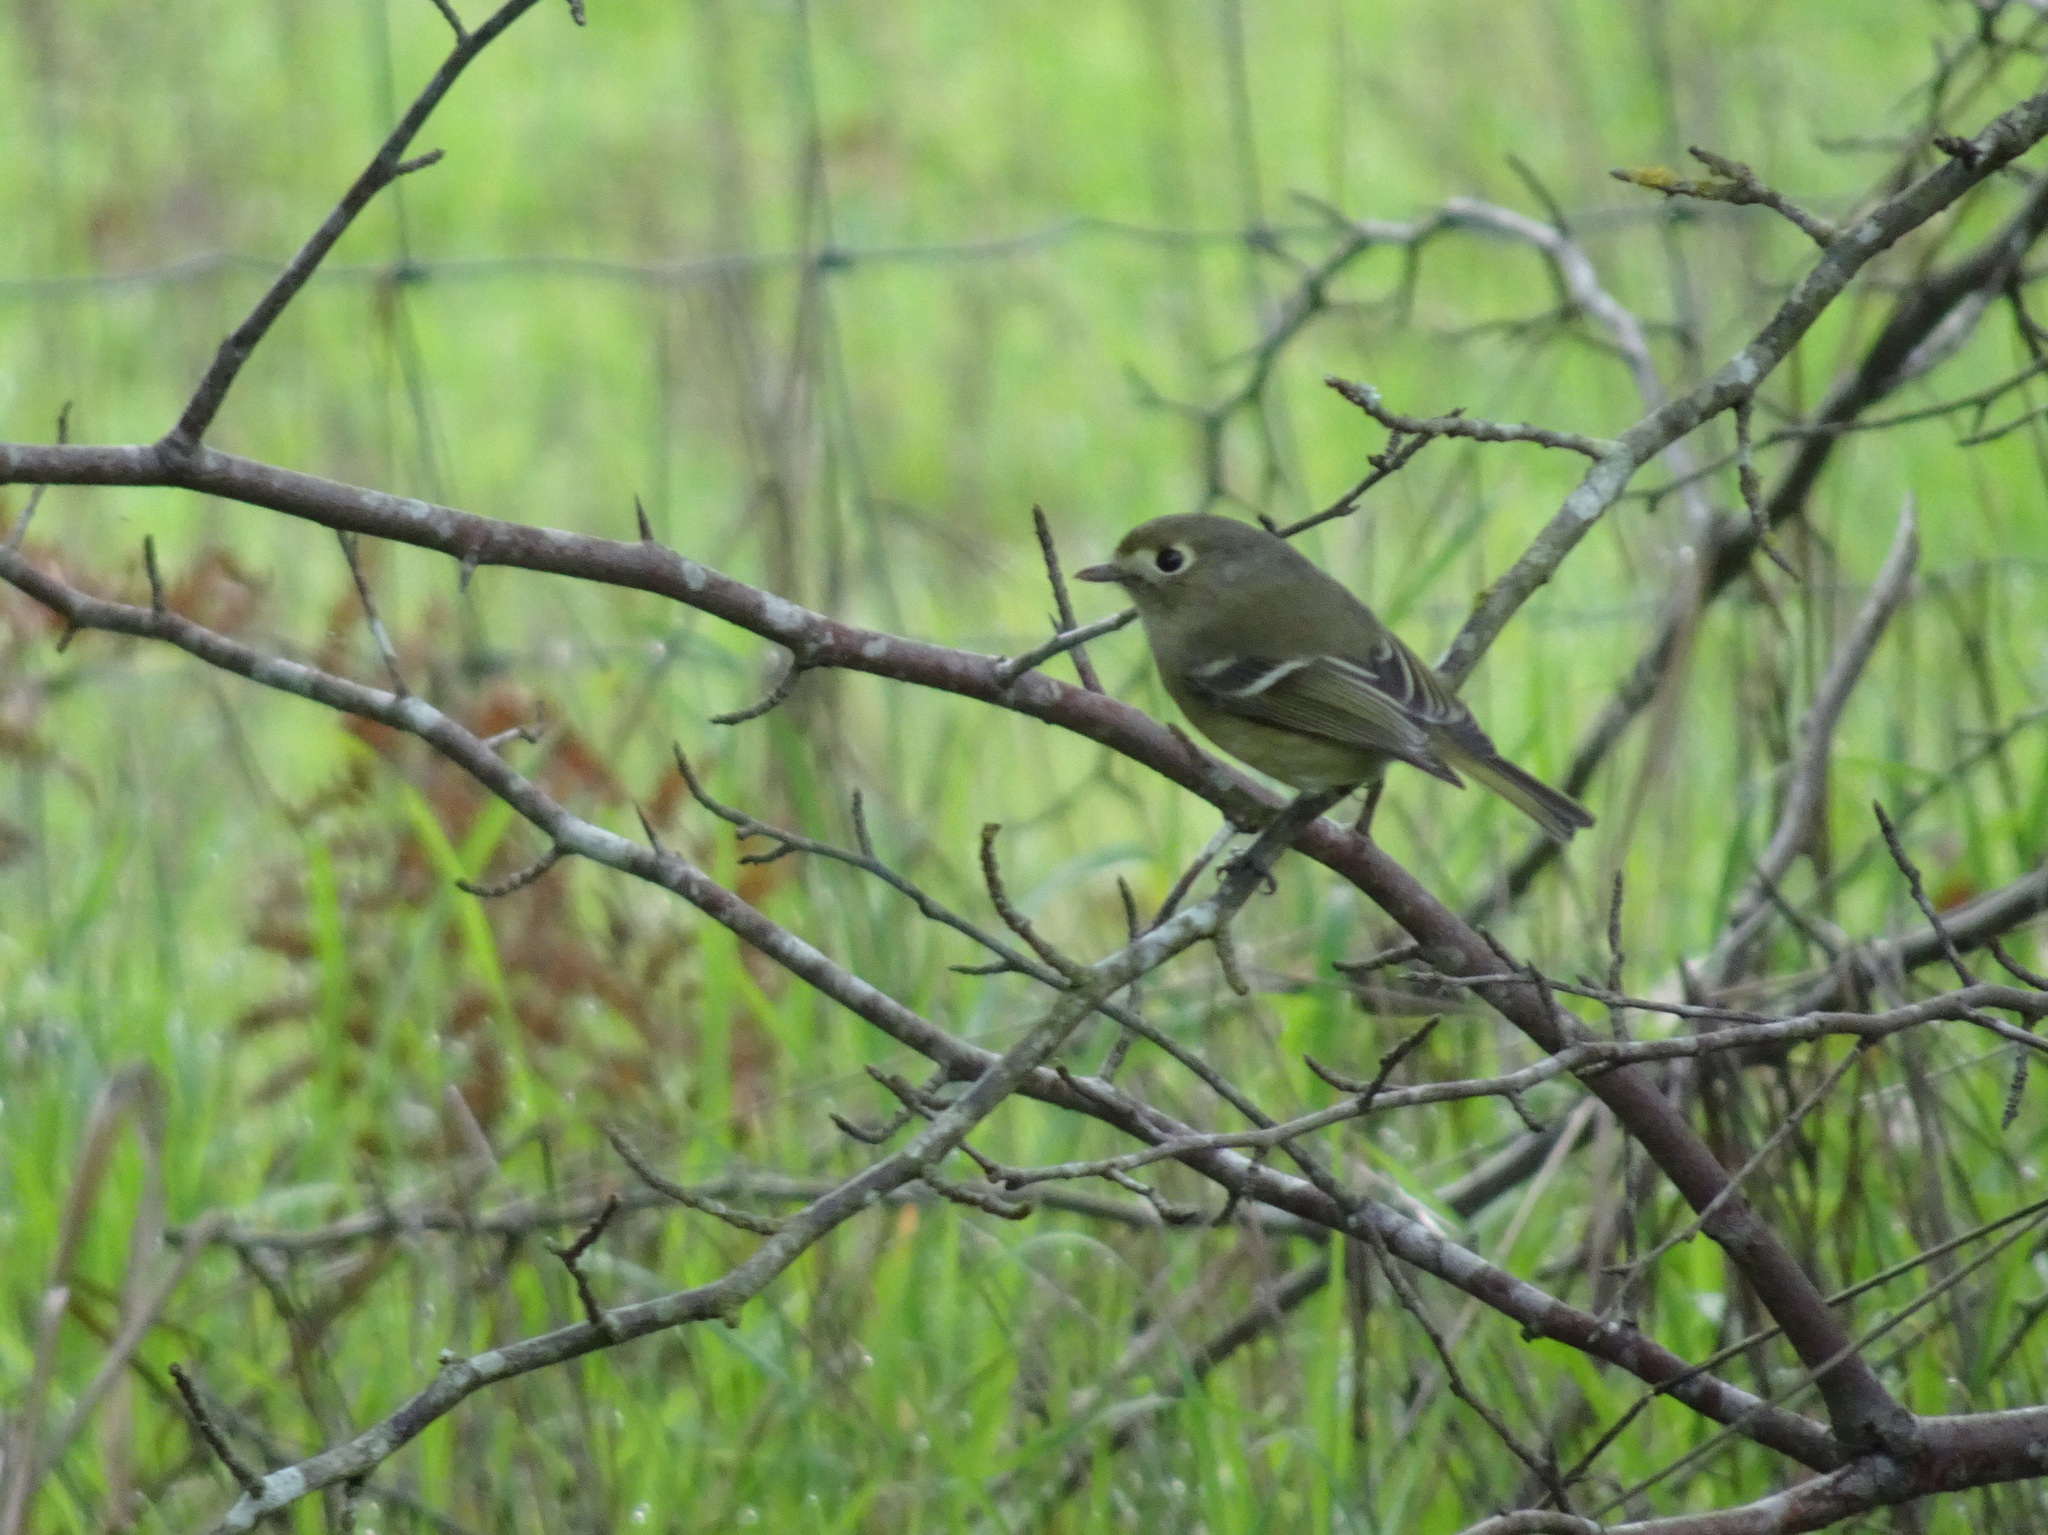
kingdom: Animalia
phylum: Chordata
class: Aves
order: Passeriformes
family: Vireonidae
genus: Vireo
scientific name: Vireo huttoni
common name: Hutton's vireo
